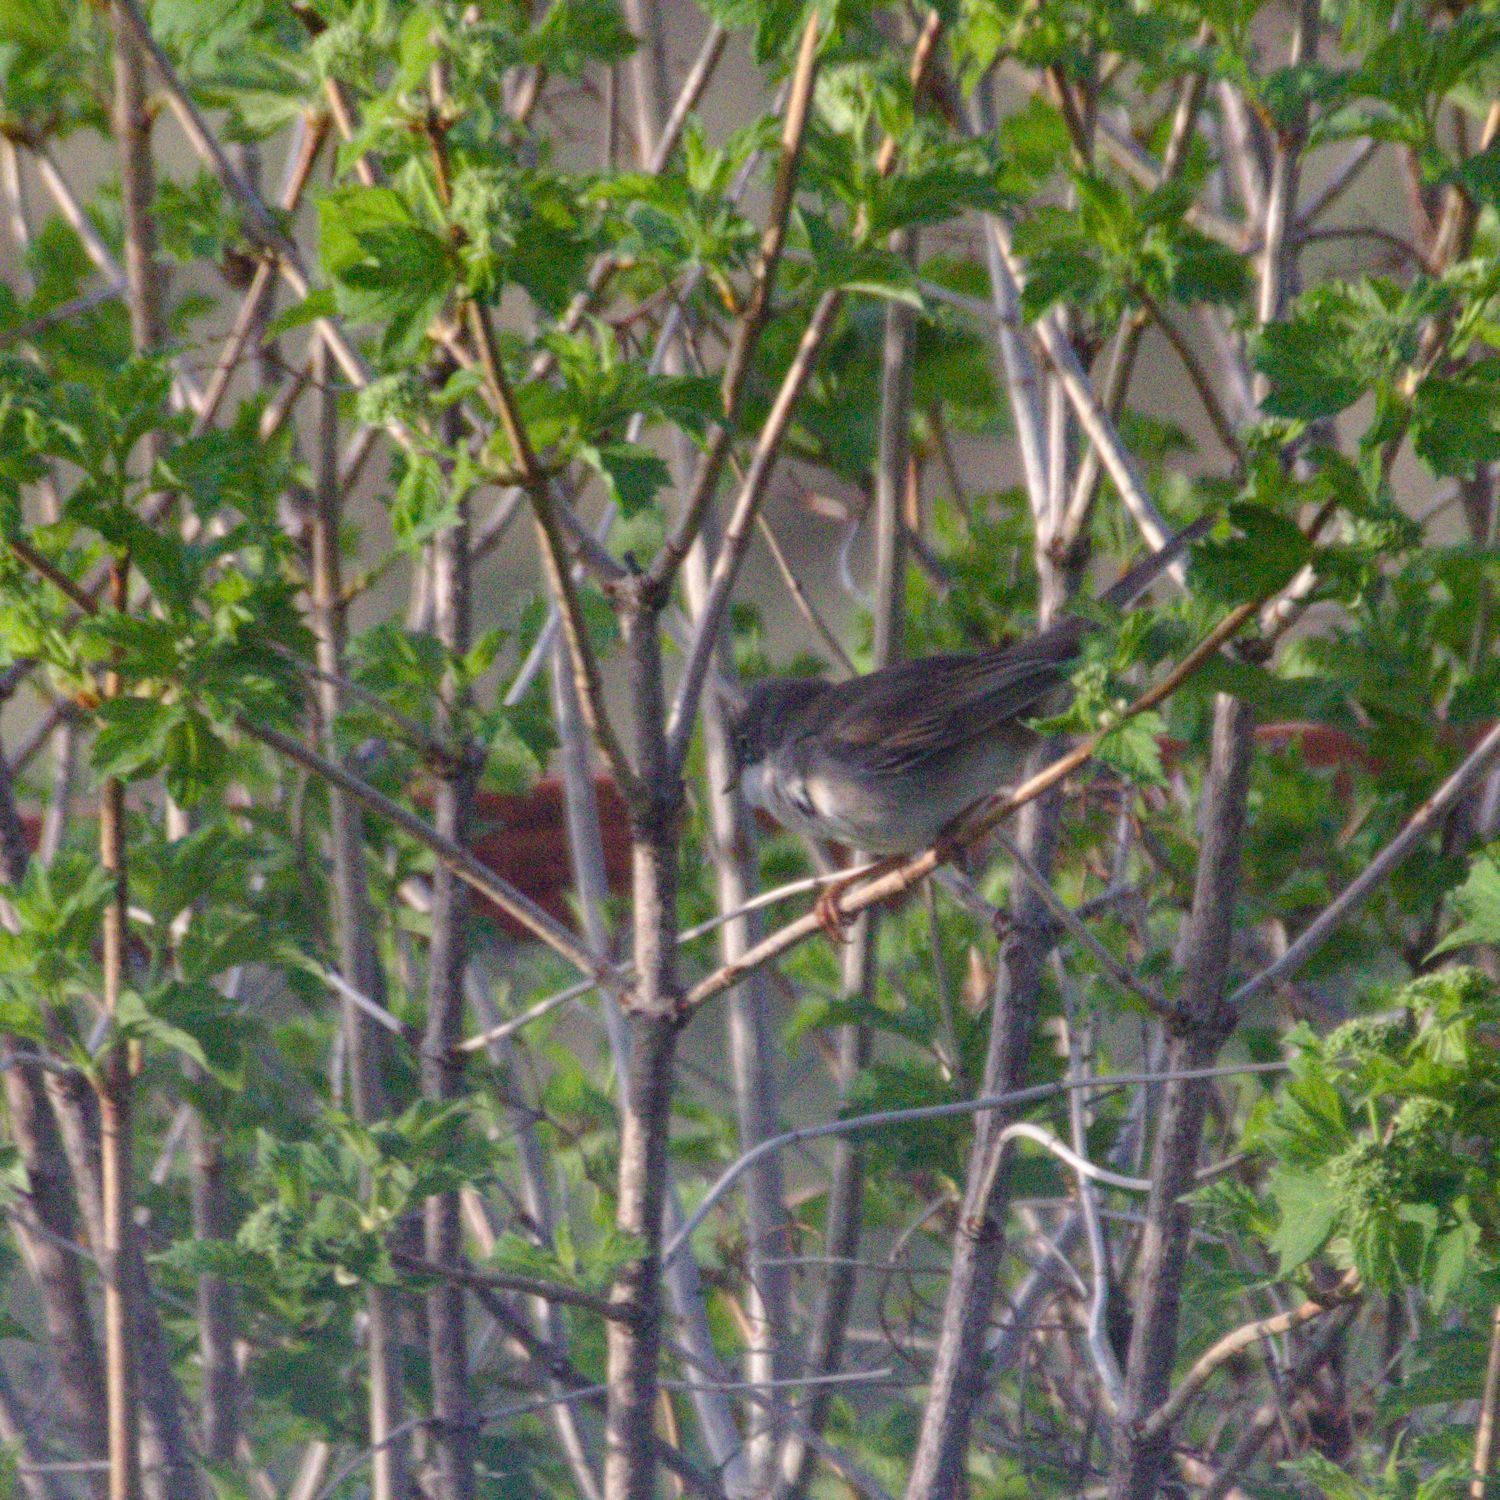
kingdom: Animalia
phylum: Chordata
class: Aves
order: Passeriformes
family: Sylviidae
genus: Sylvia
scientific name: Sylvia communis
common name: Common whitethroat
